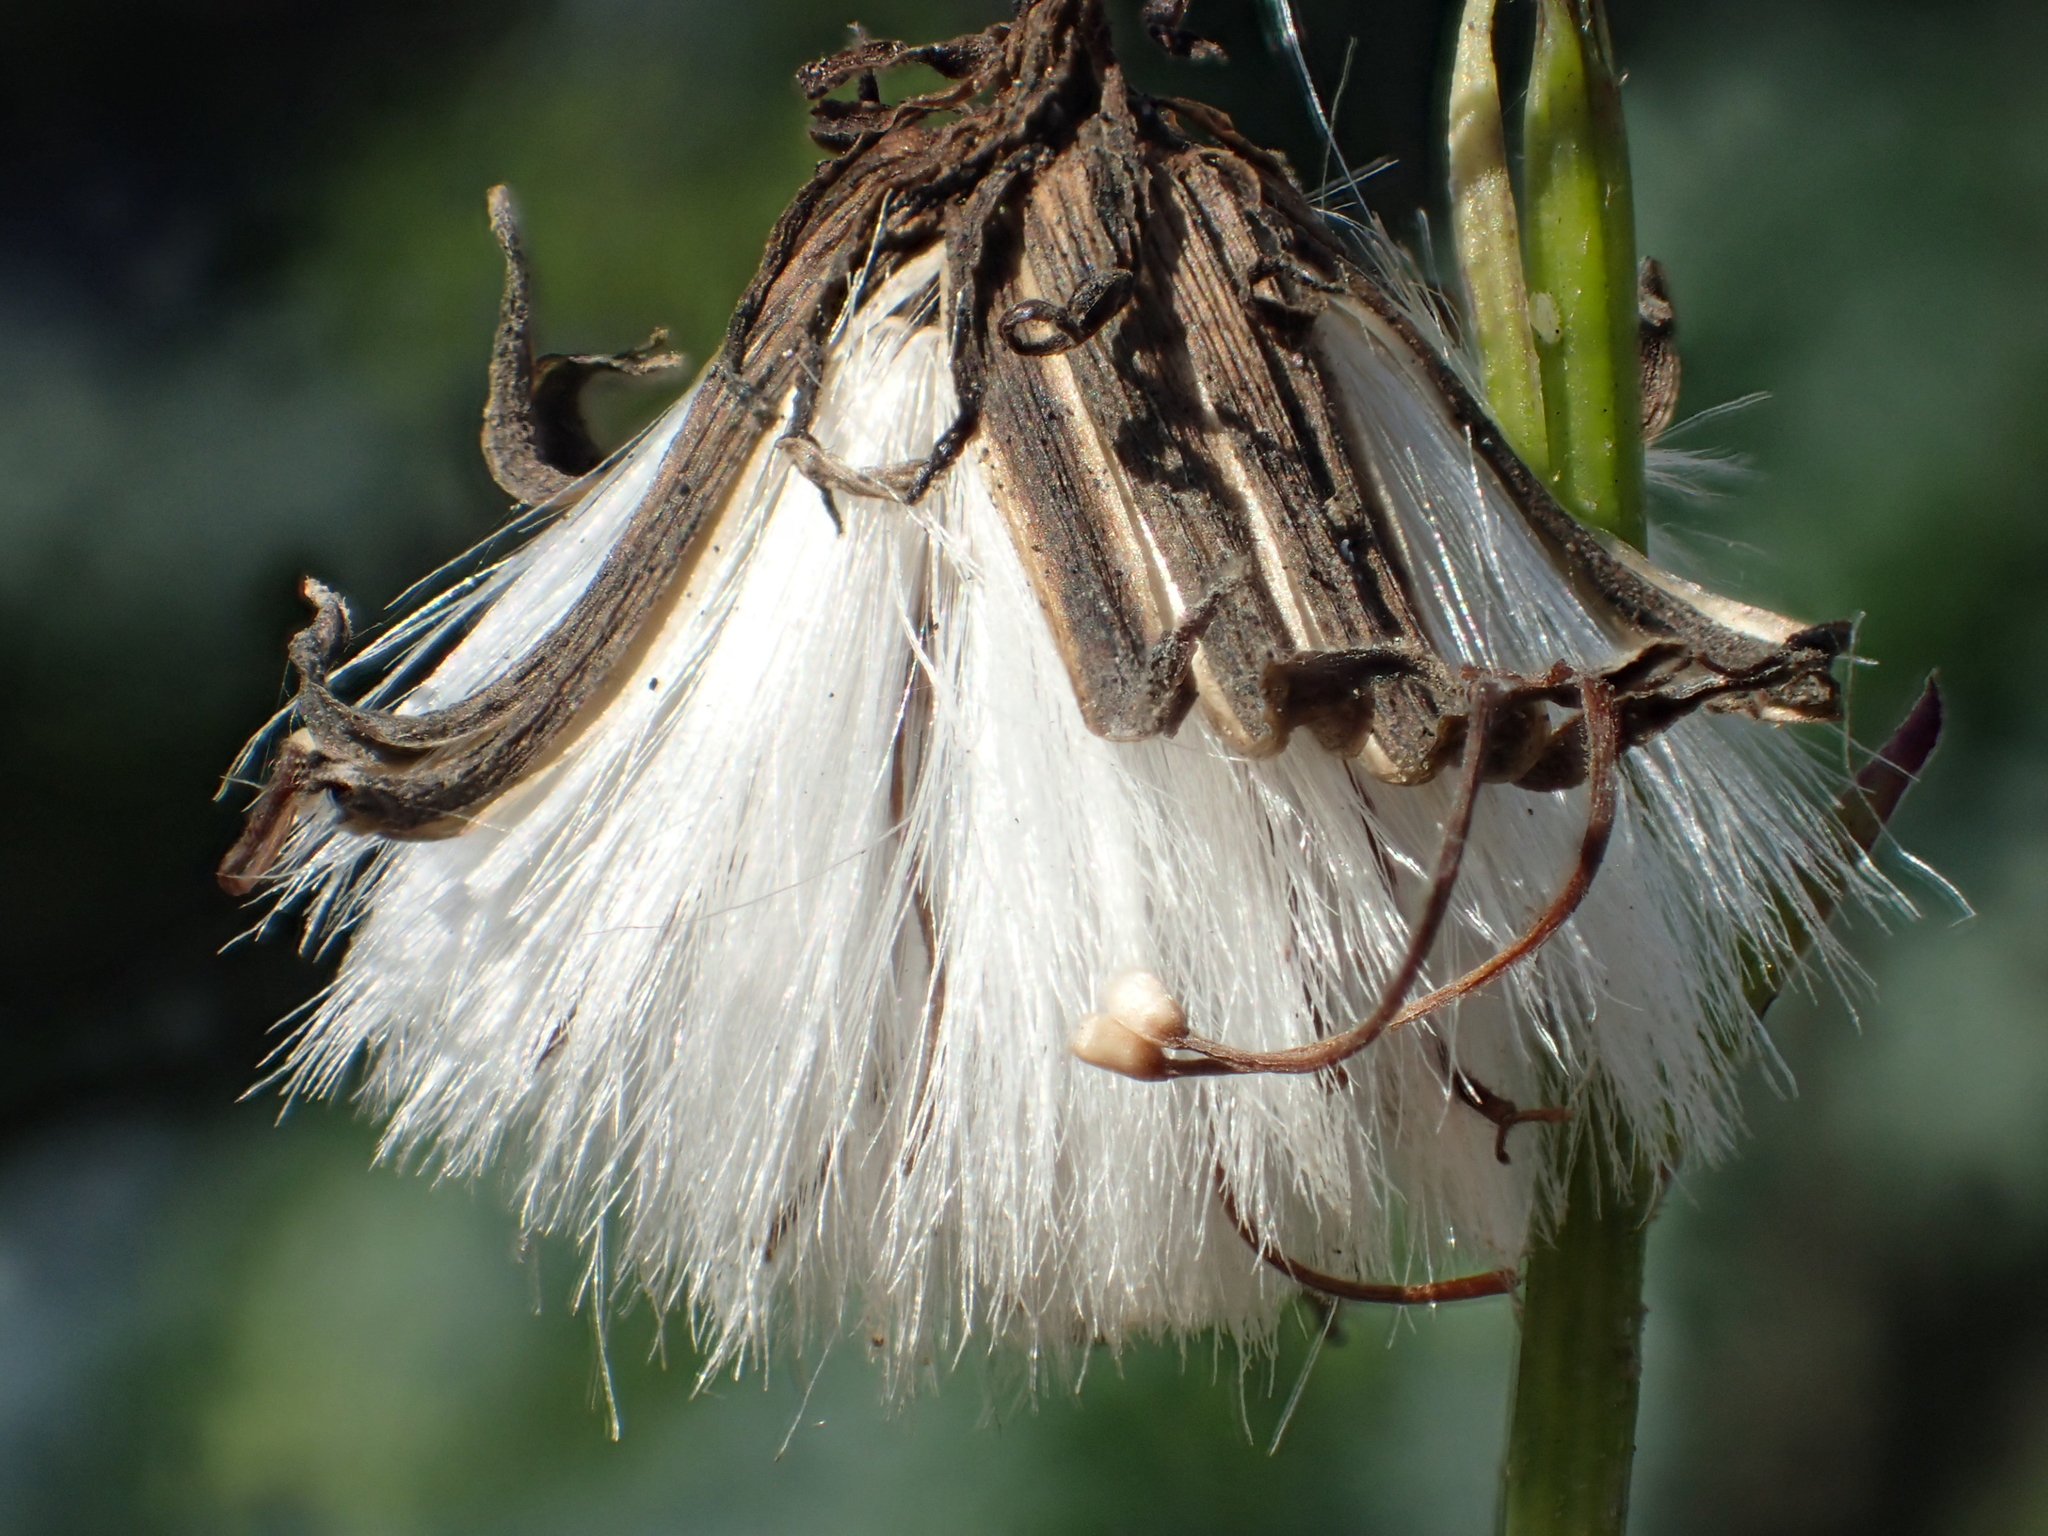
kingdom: Plantae
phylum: Tracheophyta
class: Magnoliopsida
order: Asterales
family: Asteraceae
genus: Gynura
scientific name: Gynura bicolor
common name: Red-vegetable
